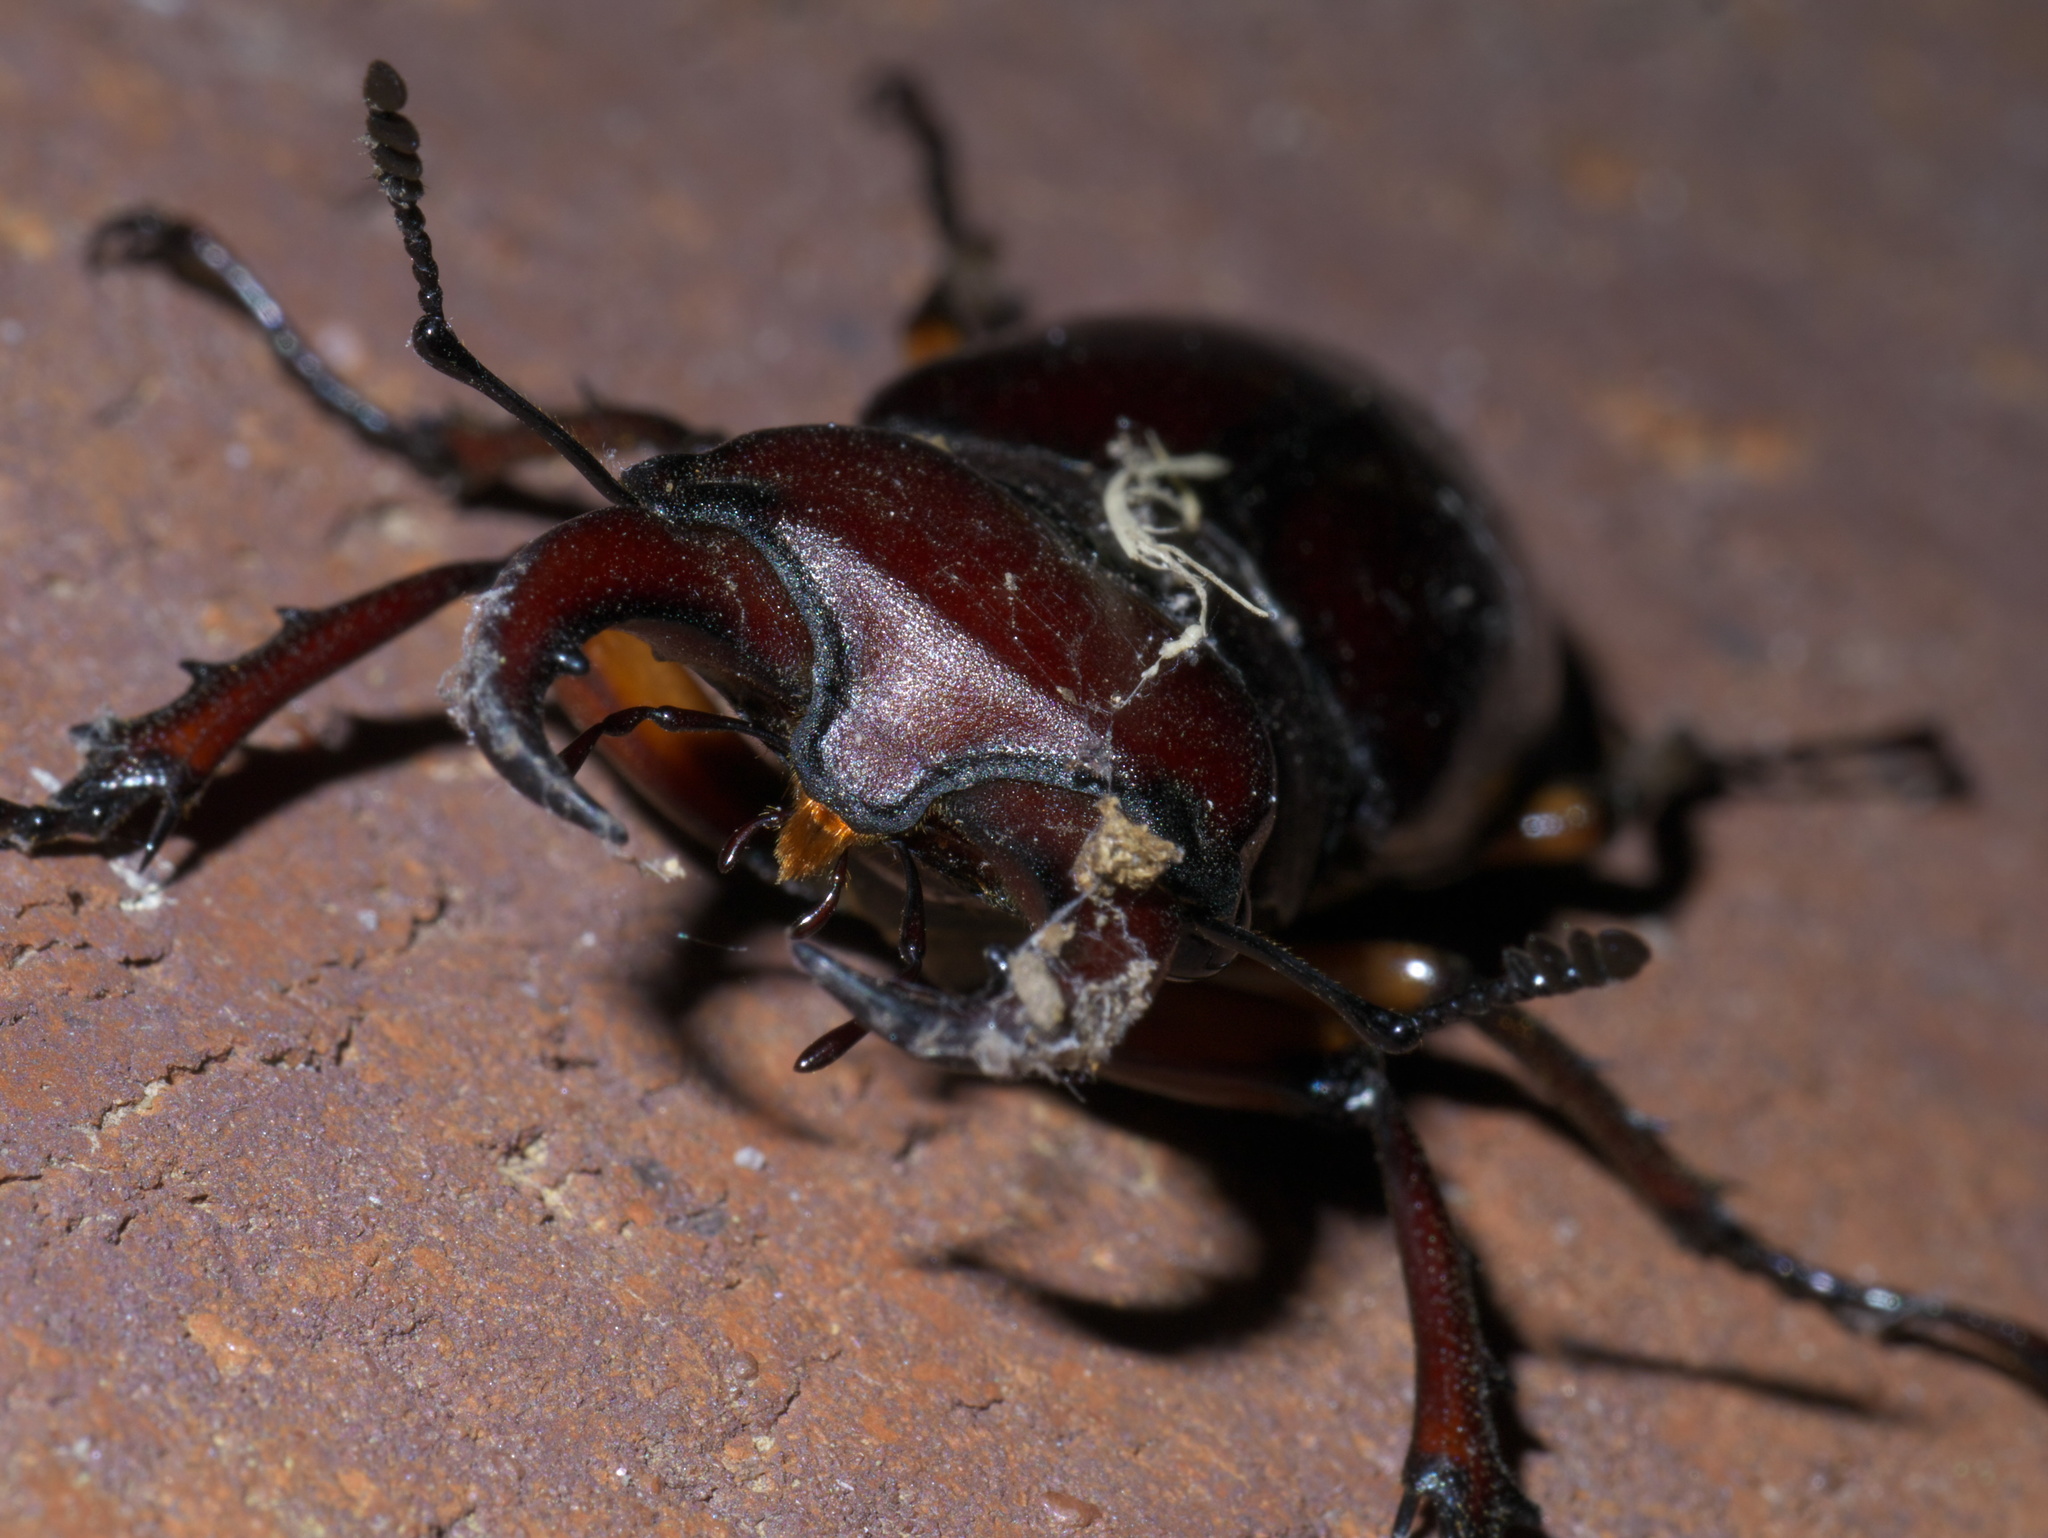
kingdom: Animalia
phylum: Arthropoda
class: Insecta
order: Coleoptera
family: Lucanidae
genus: Lucanus
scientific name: Lucanus capreolus
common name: Stag beetle
